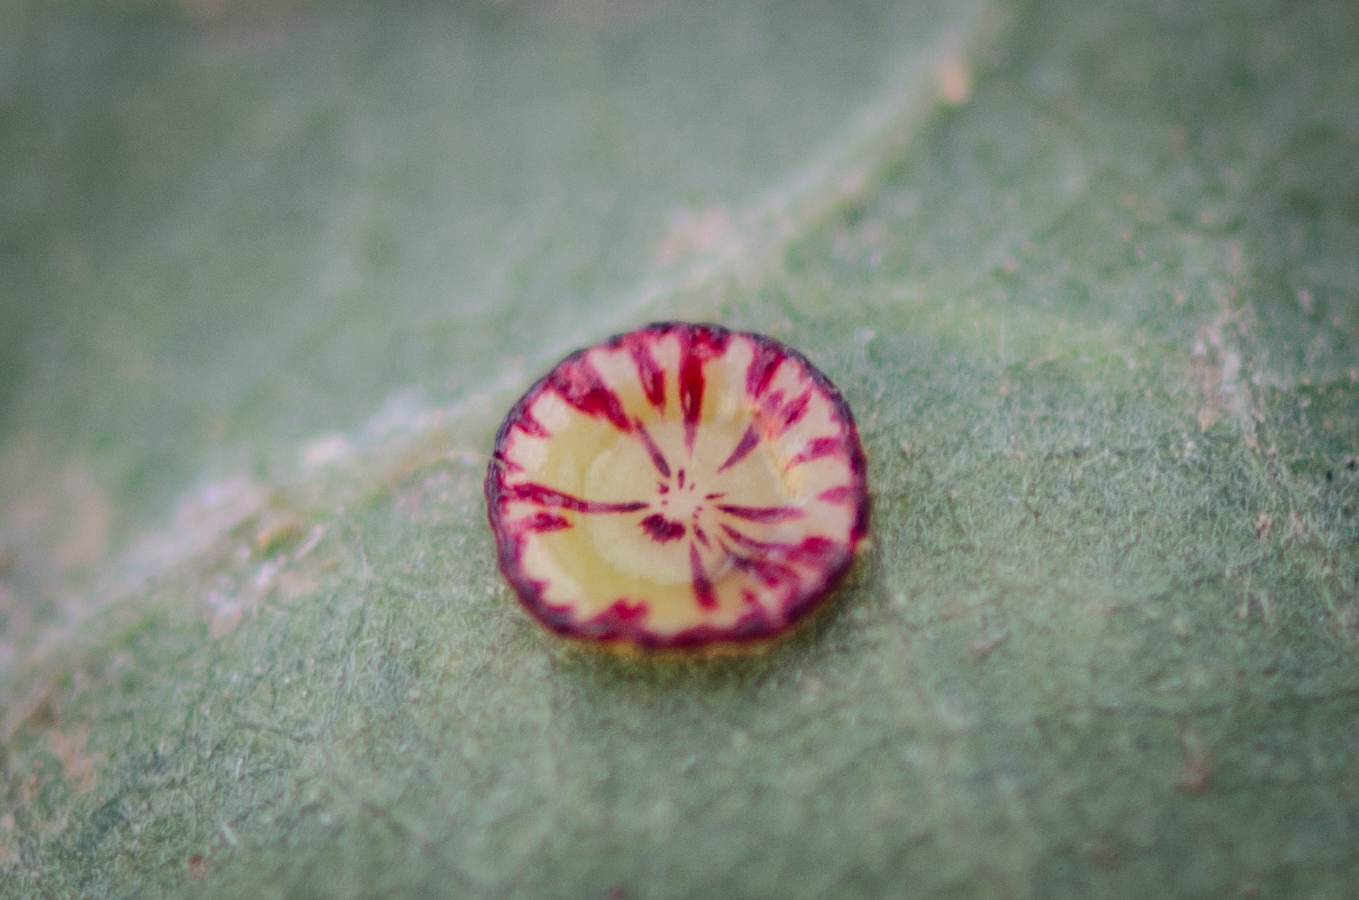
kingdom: Animalia
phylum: Arthropoda
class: Insecta
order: Hymenoptera
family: Cynipidae
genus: Andricus
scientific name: Andricus
